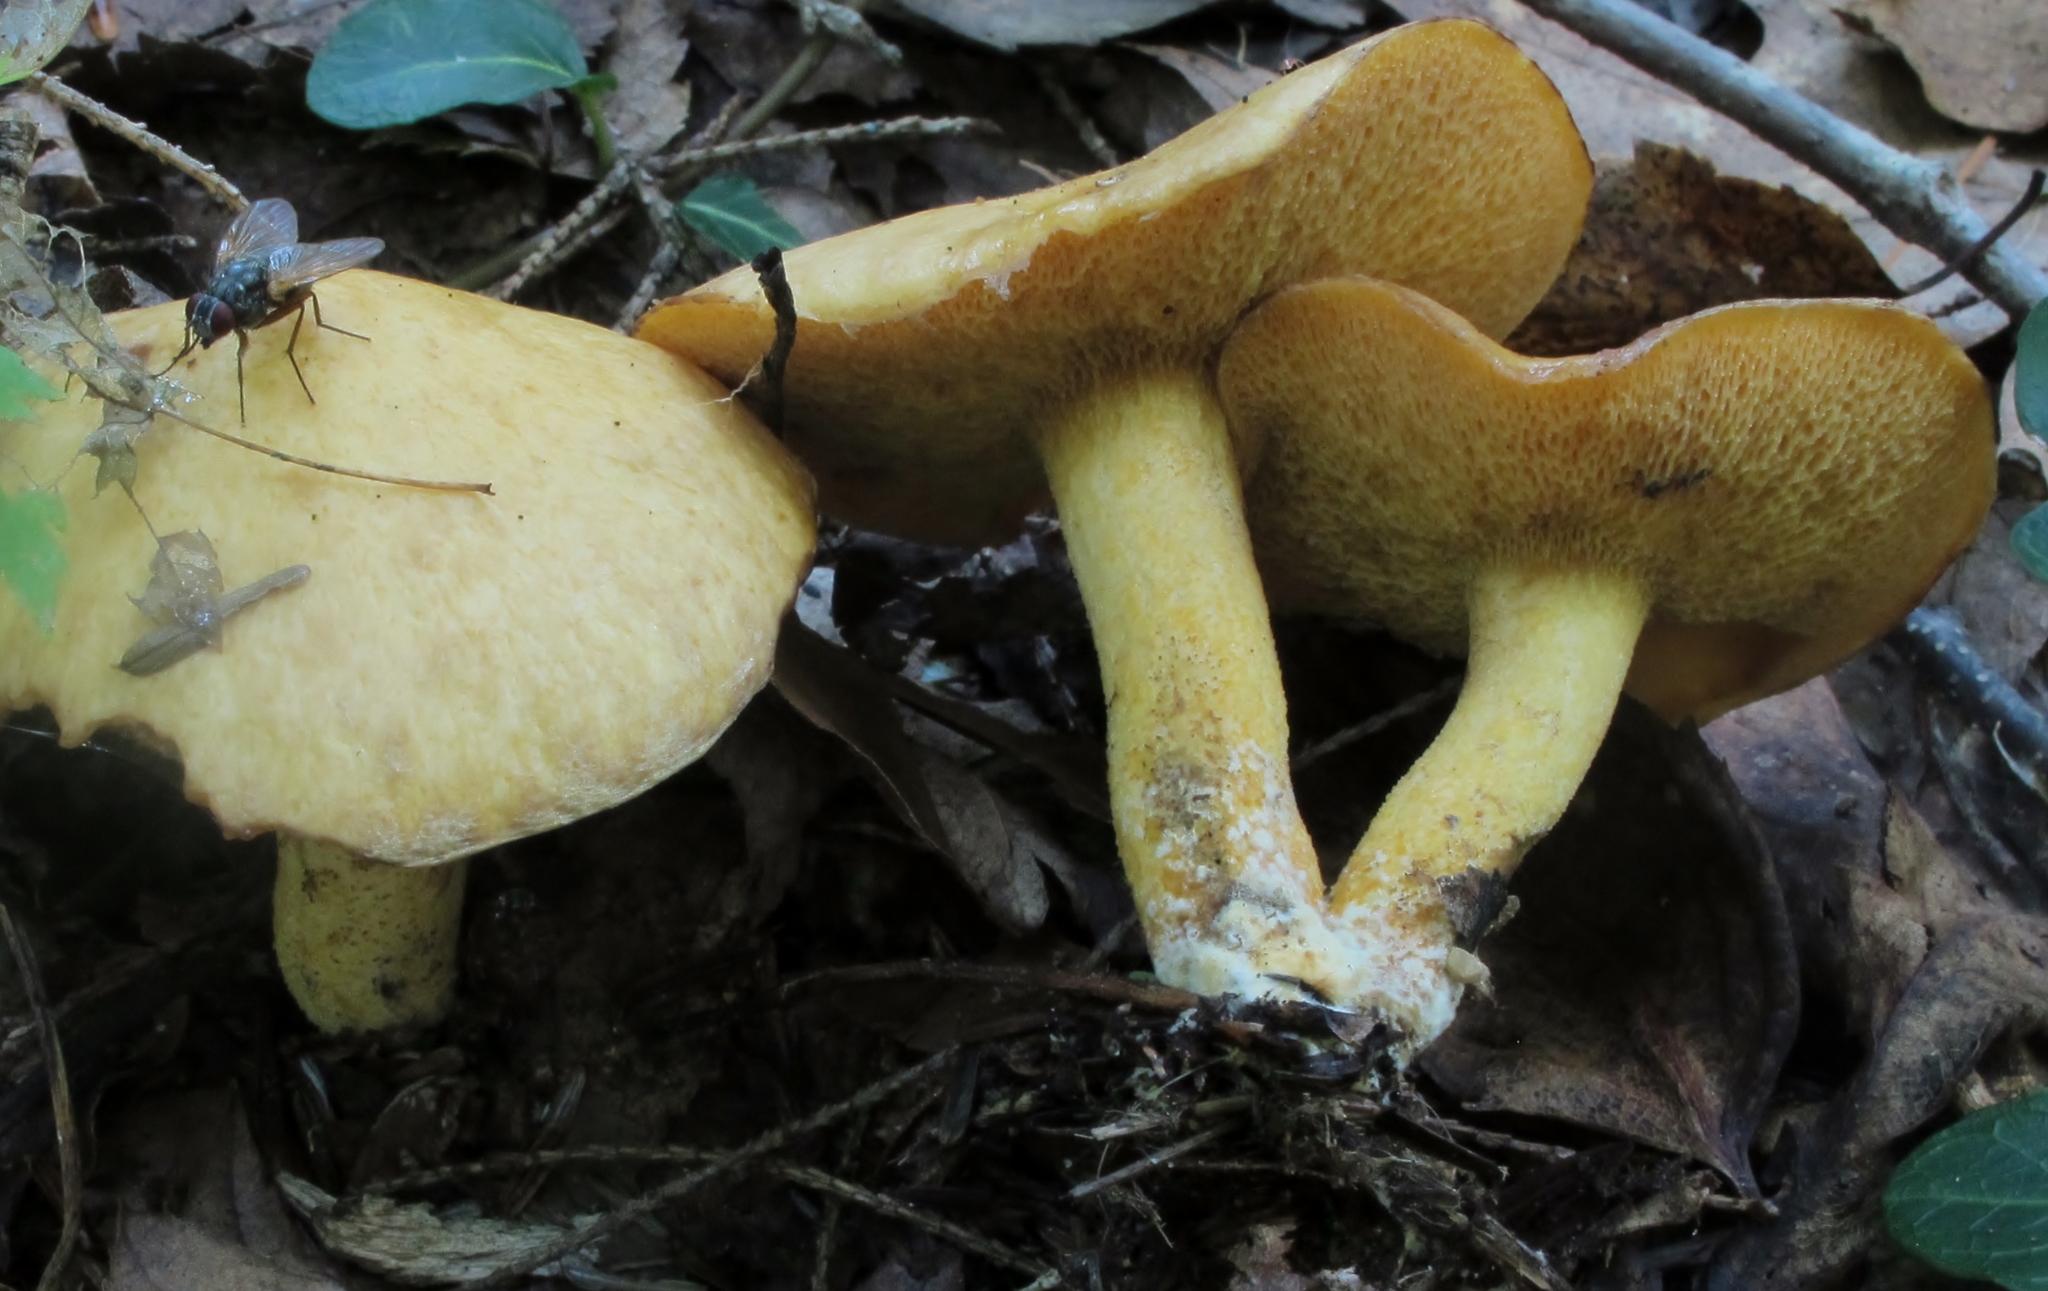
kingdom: Fungi
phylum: Basidiomycota
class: Agaricomycetes
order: Boletales
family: Suillaceae
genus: Suillus
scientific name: Suillus subaureus
